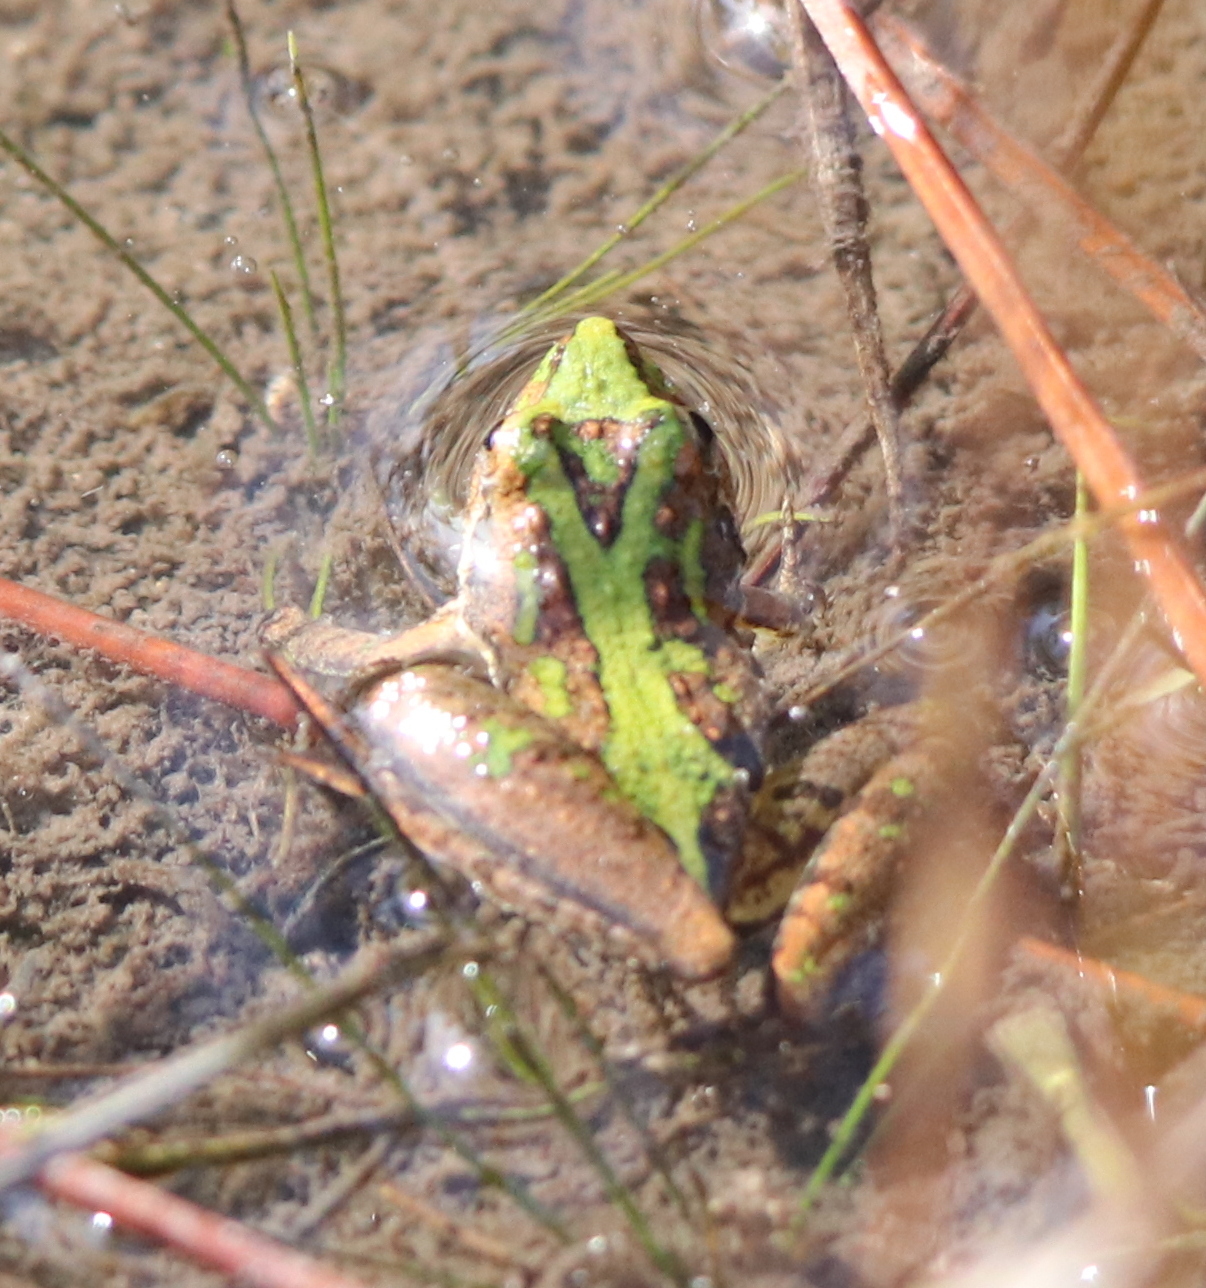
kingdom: Animalia
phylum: Chordata
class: Amphibia
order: Anura
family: Hylidae
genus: Acris
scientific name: Acris gryllus
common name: Southern cricket frog
